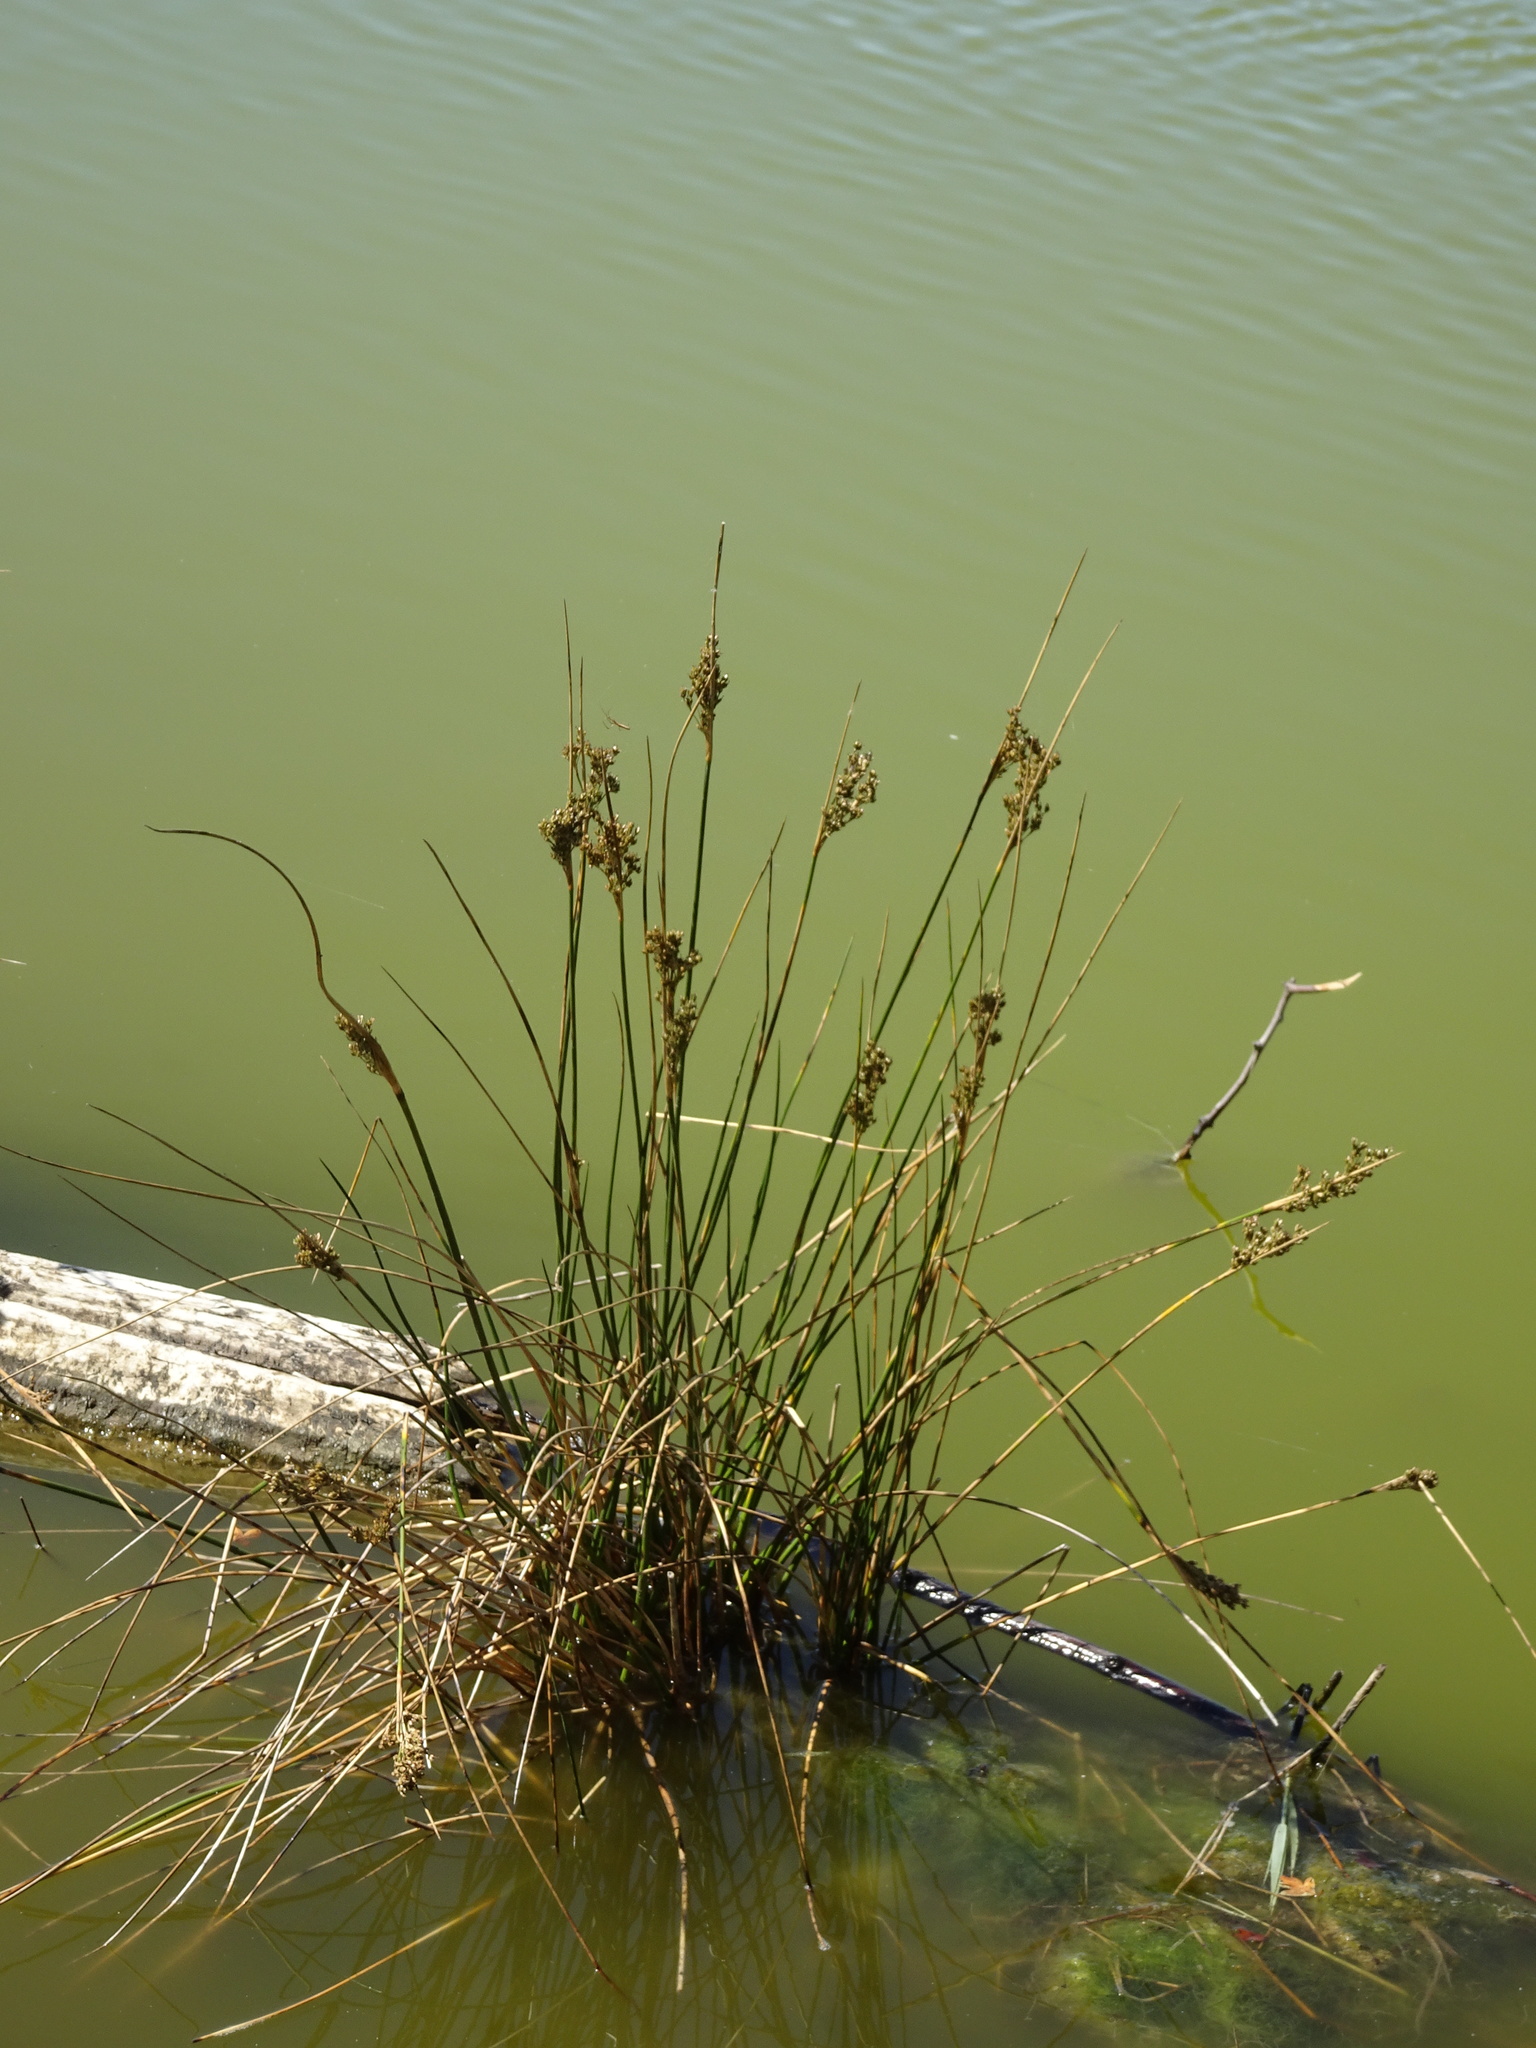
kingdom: Plantae
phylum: Tracheophyta
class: Liliopsida
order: Poales
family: Juncaceae
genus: Juncus
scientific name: Juncus maritimus
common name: Sea rush
